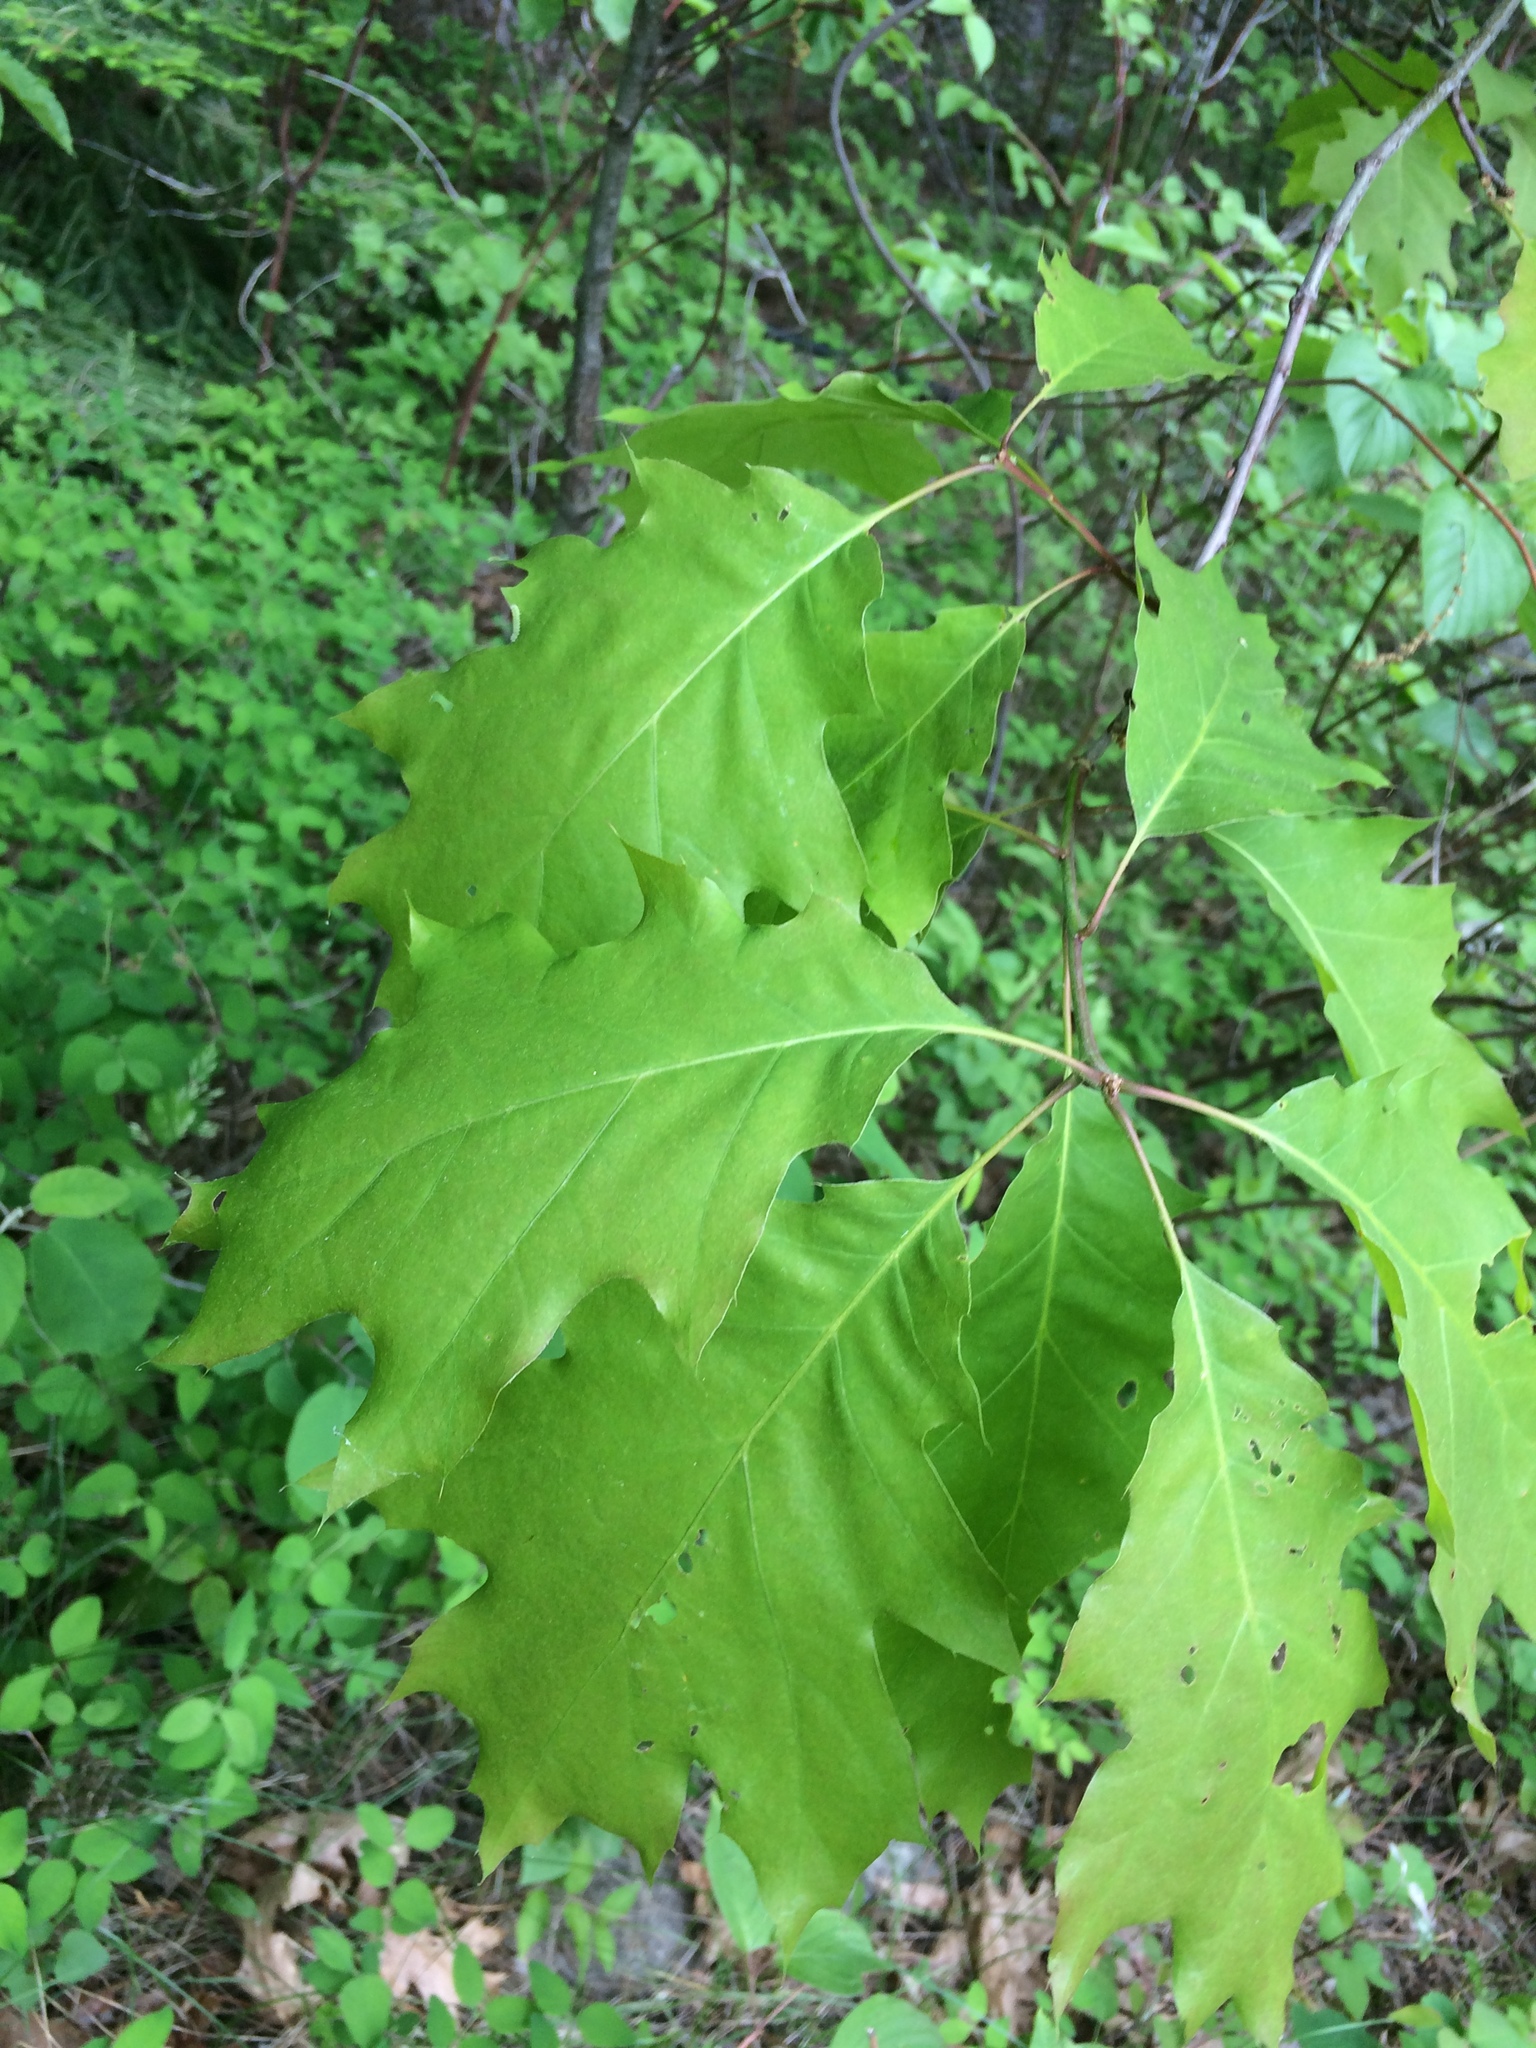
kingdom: Plantae
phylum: Tracheophyta
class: Magnoliopsida
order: Fagales
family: Fagaceae
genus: Quercus
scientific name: Quercus rubra
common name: Red oak
